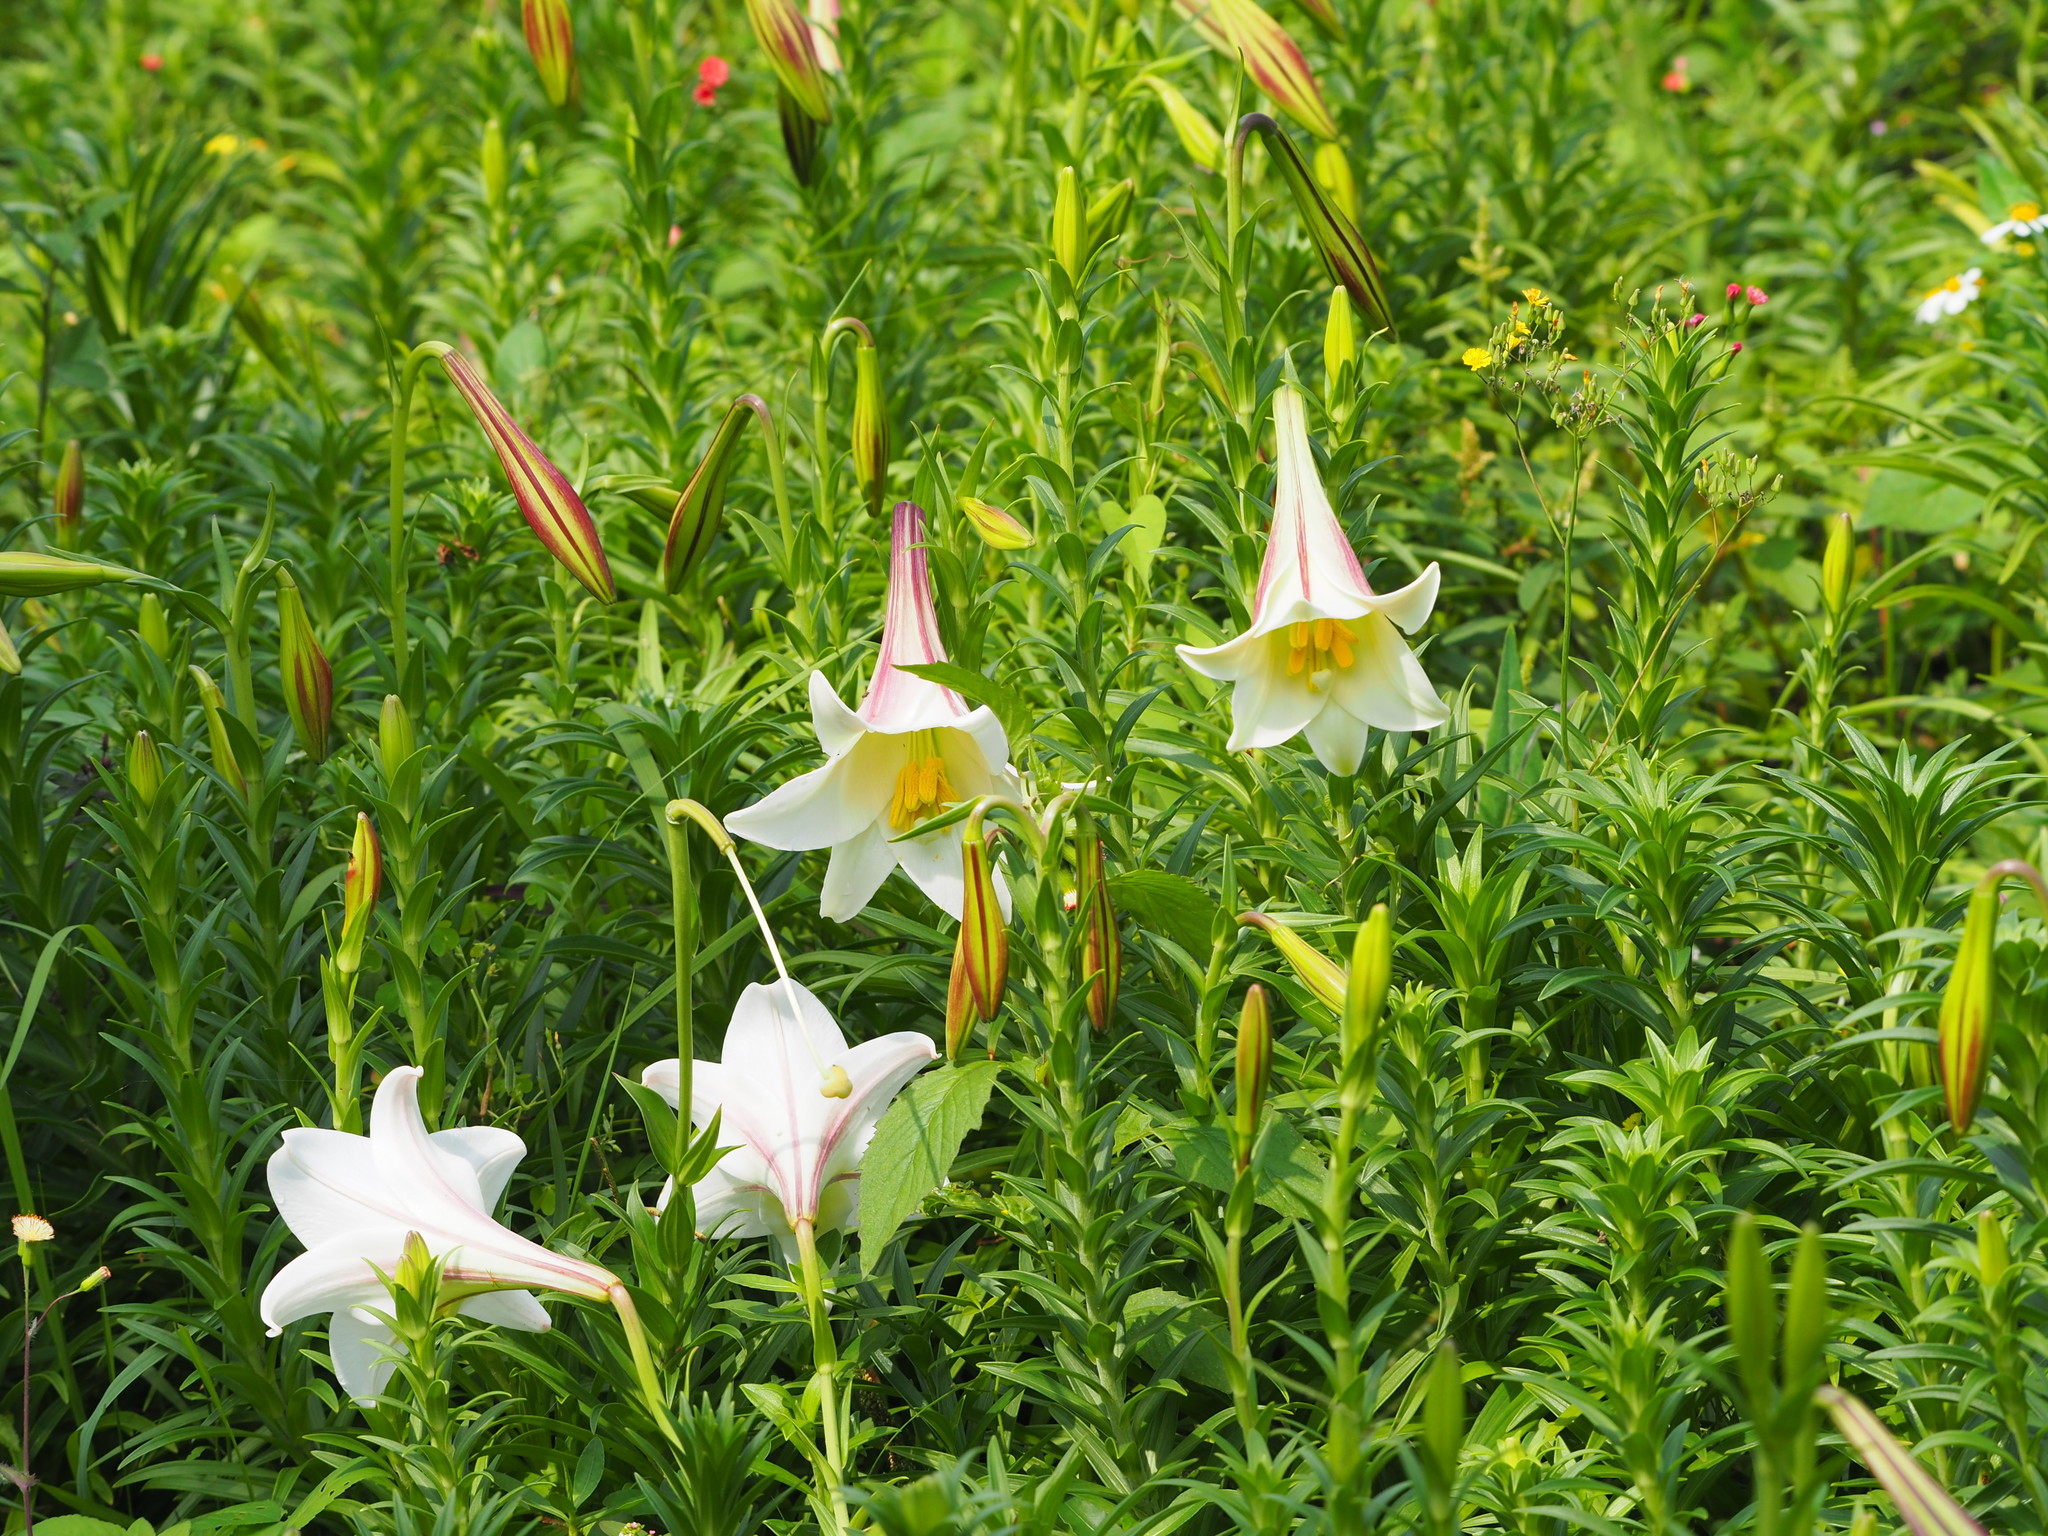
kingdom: Plantae
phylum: Tracheophyta
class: Liliopsida
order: Liliales
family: Liliaceae
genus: Lilium
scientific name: Lilium longiflorum
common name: Easter lily
